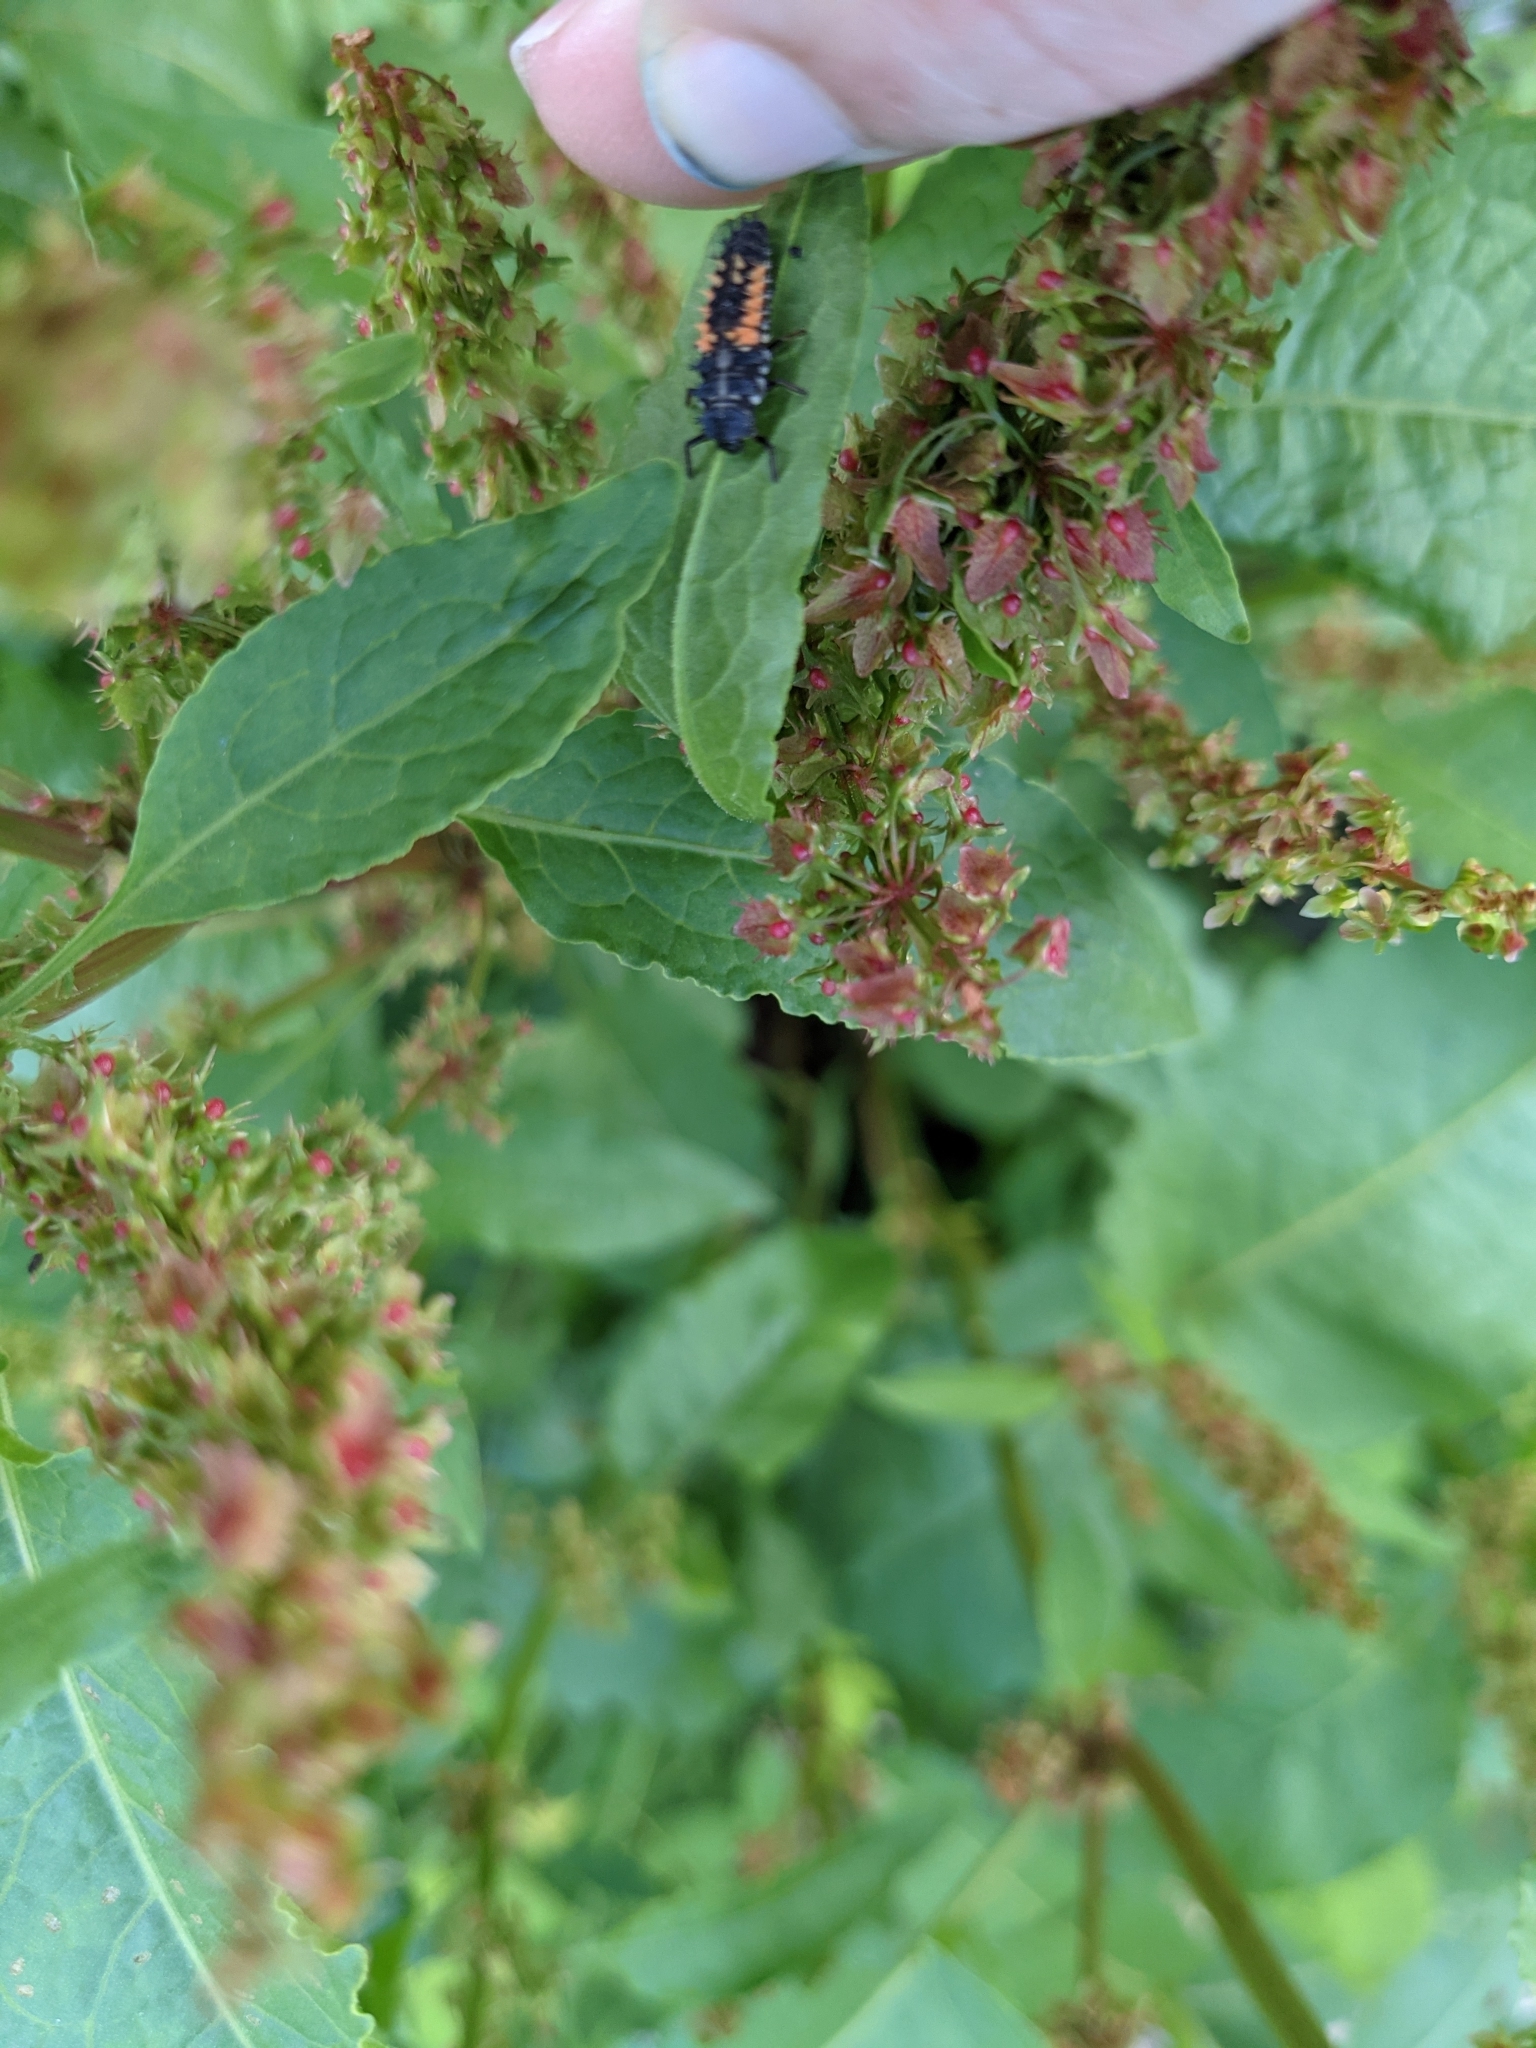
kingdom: Animalia
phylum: Arthropoda
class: Insecta
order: Coleoptera
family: Coccinellidae
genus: Harmonia
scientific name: Harmonia axyridis
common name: Harlequin ladybird
